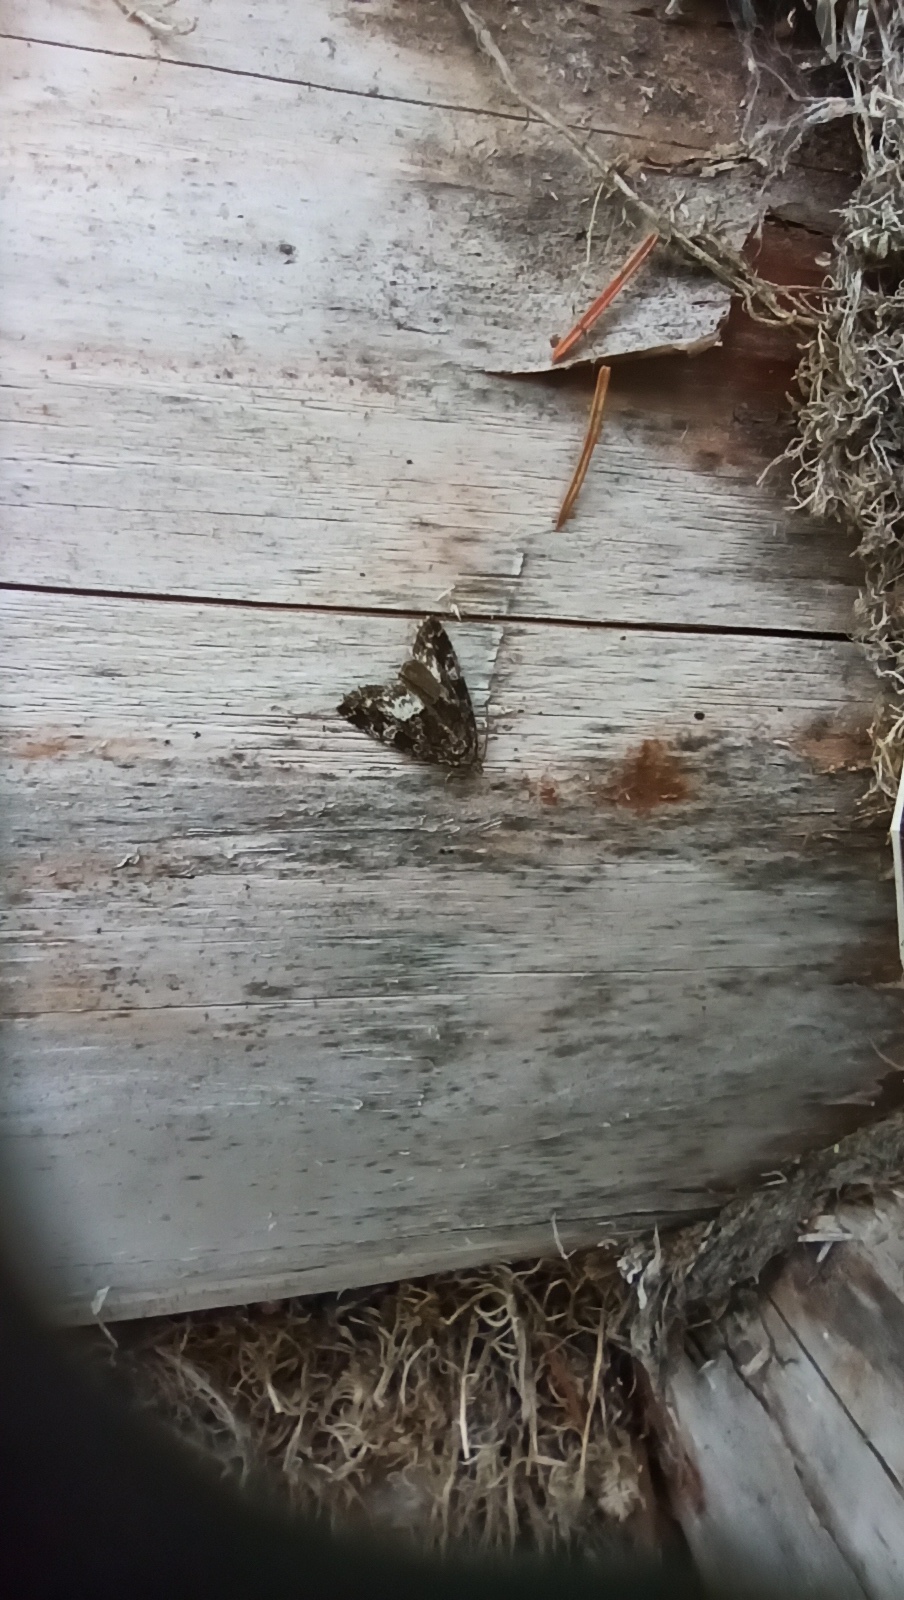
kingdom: Animalia
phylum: Arthropoda
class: Insecta
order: Lepidoptera
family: Noctuidae
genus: Deltote
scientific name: Deltote pygarga
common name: Marbled white spot
